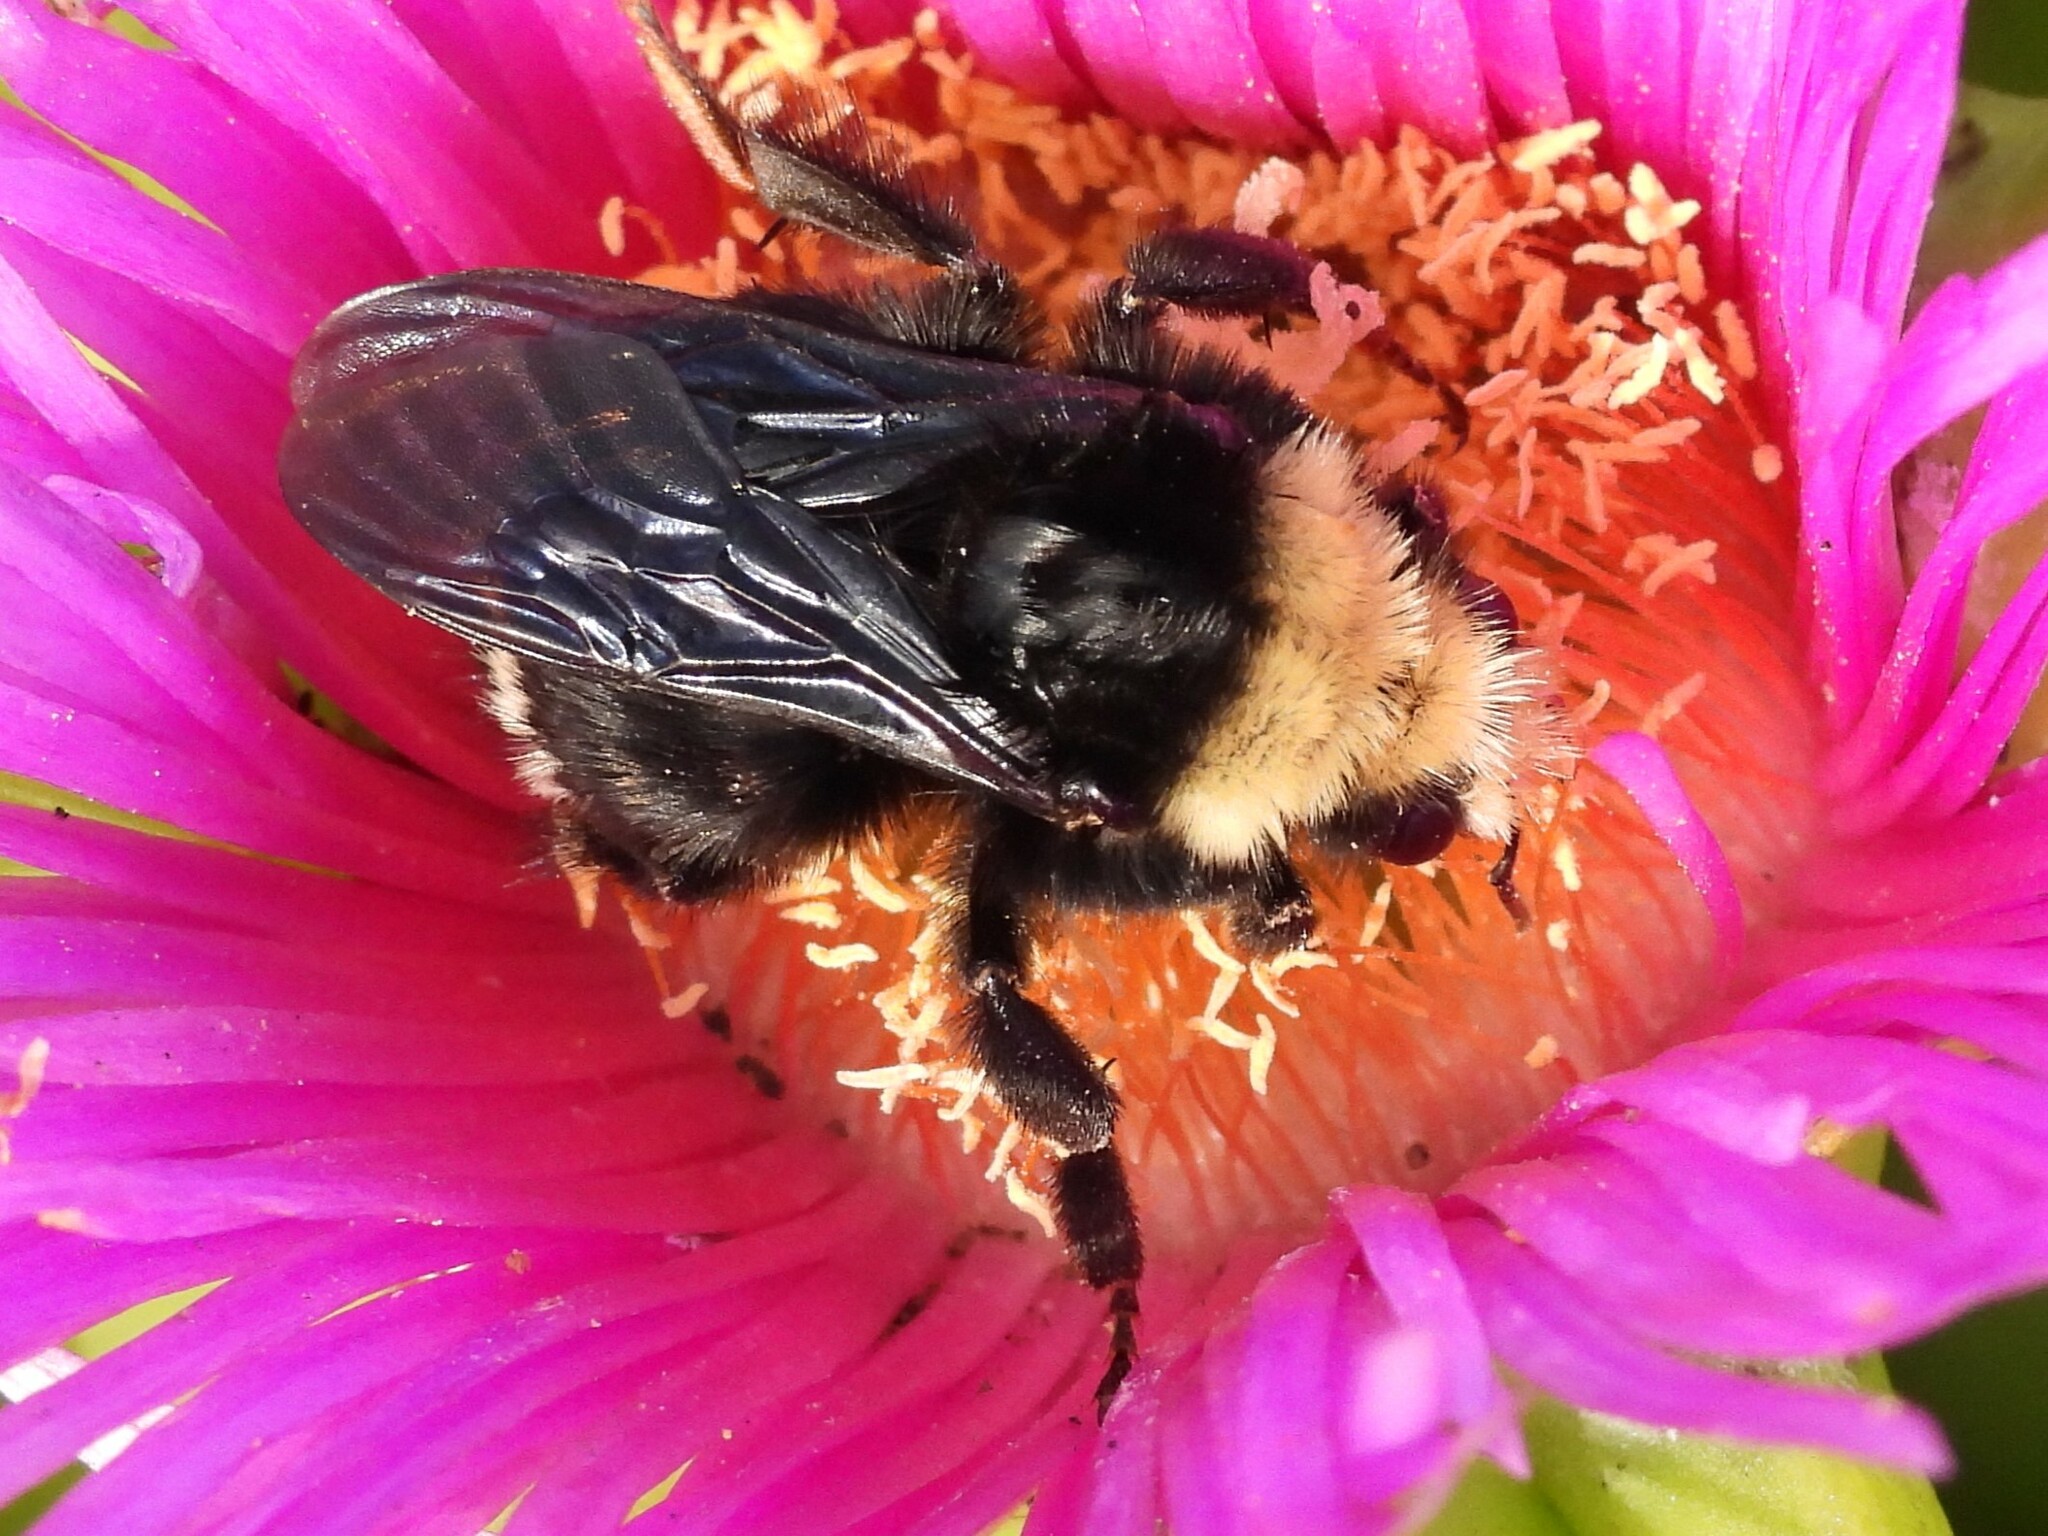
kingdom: Animalia
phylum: Arthropoda
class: Insecta
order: Hymenoptera
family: Apidae
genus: Bombus
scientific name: Bombus vosnesenskii
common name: Vosnesensky bumble bee
